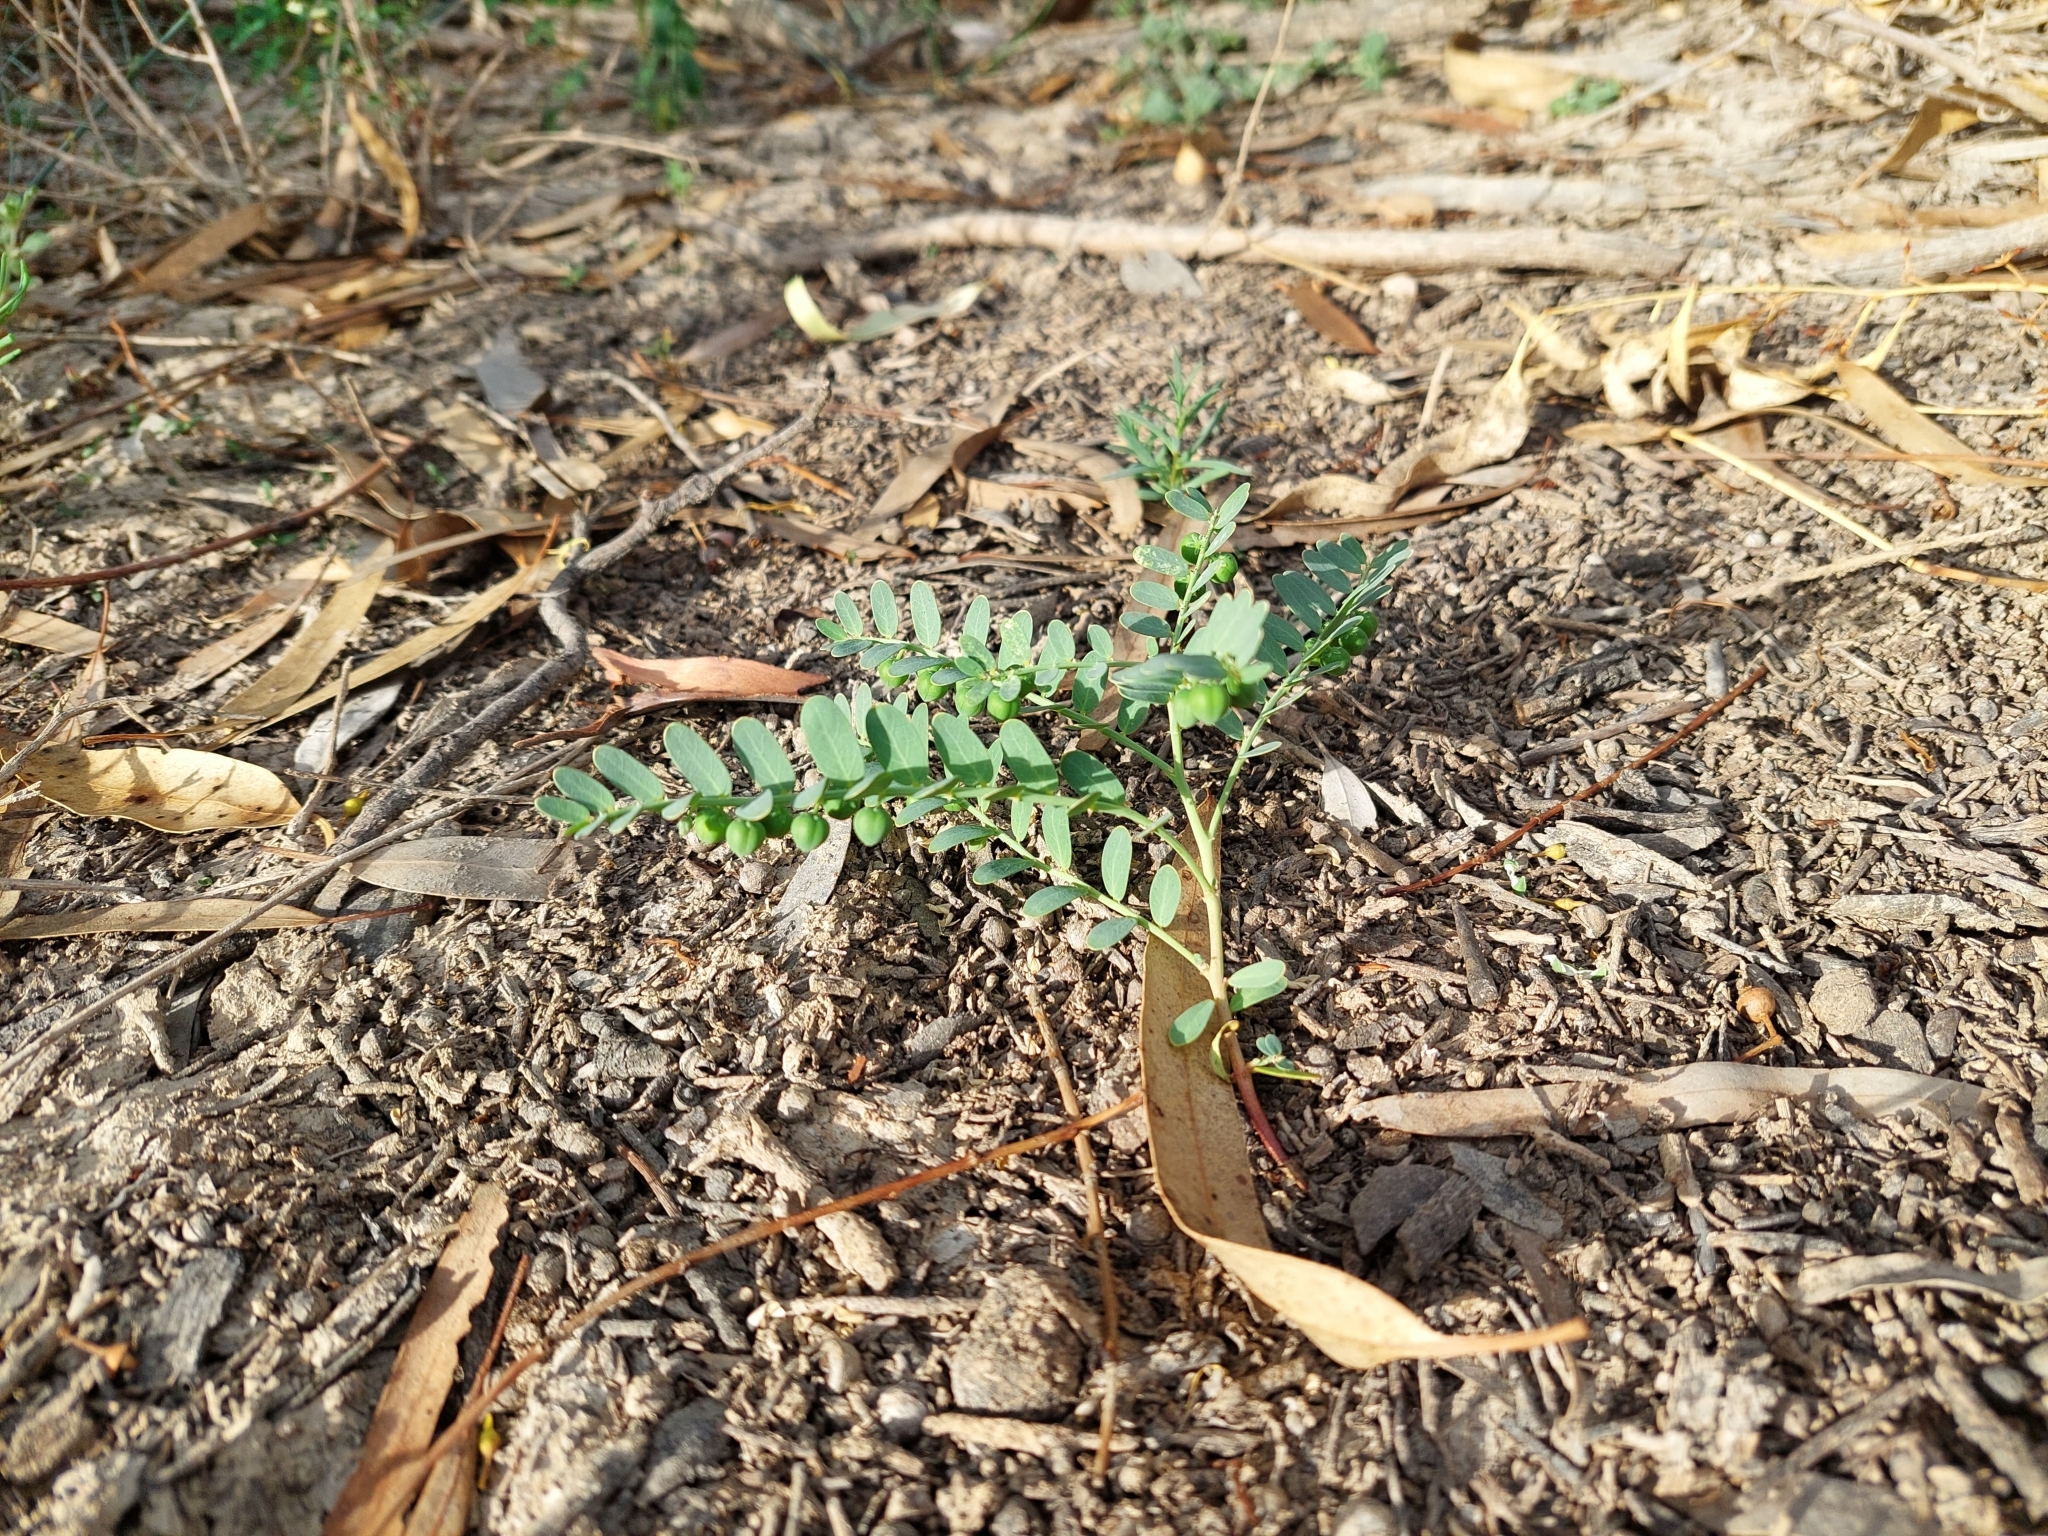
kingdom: Plantae
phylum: Tracheophyta
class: Magnoliopsida
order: Malpighiales
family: Phyllanthaceae
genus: Synostemon
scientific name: Synostemon trachyspermus
